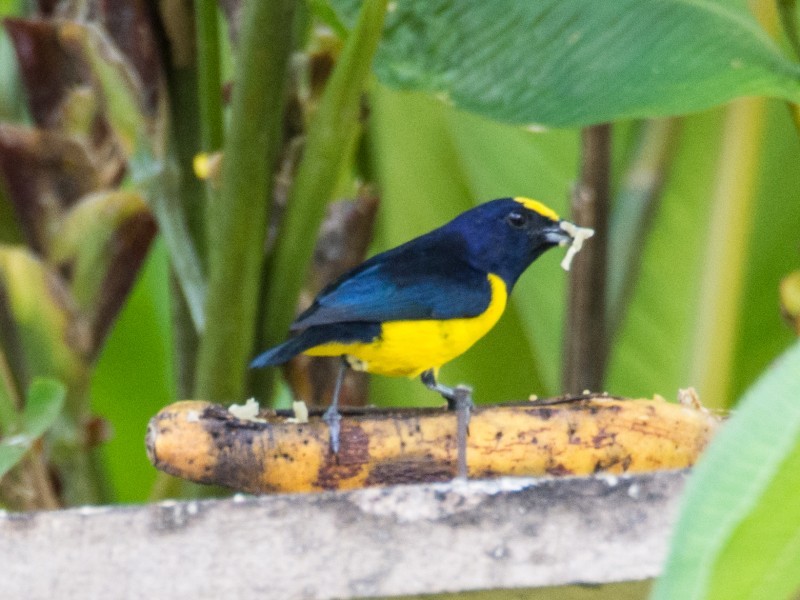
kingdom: Animalia
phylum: Chordata
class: Aves
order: Passeriformes
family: Fringillidae
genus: Euphonia
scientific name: Euphonia imitans
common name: Spot-crowned euphonia
